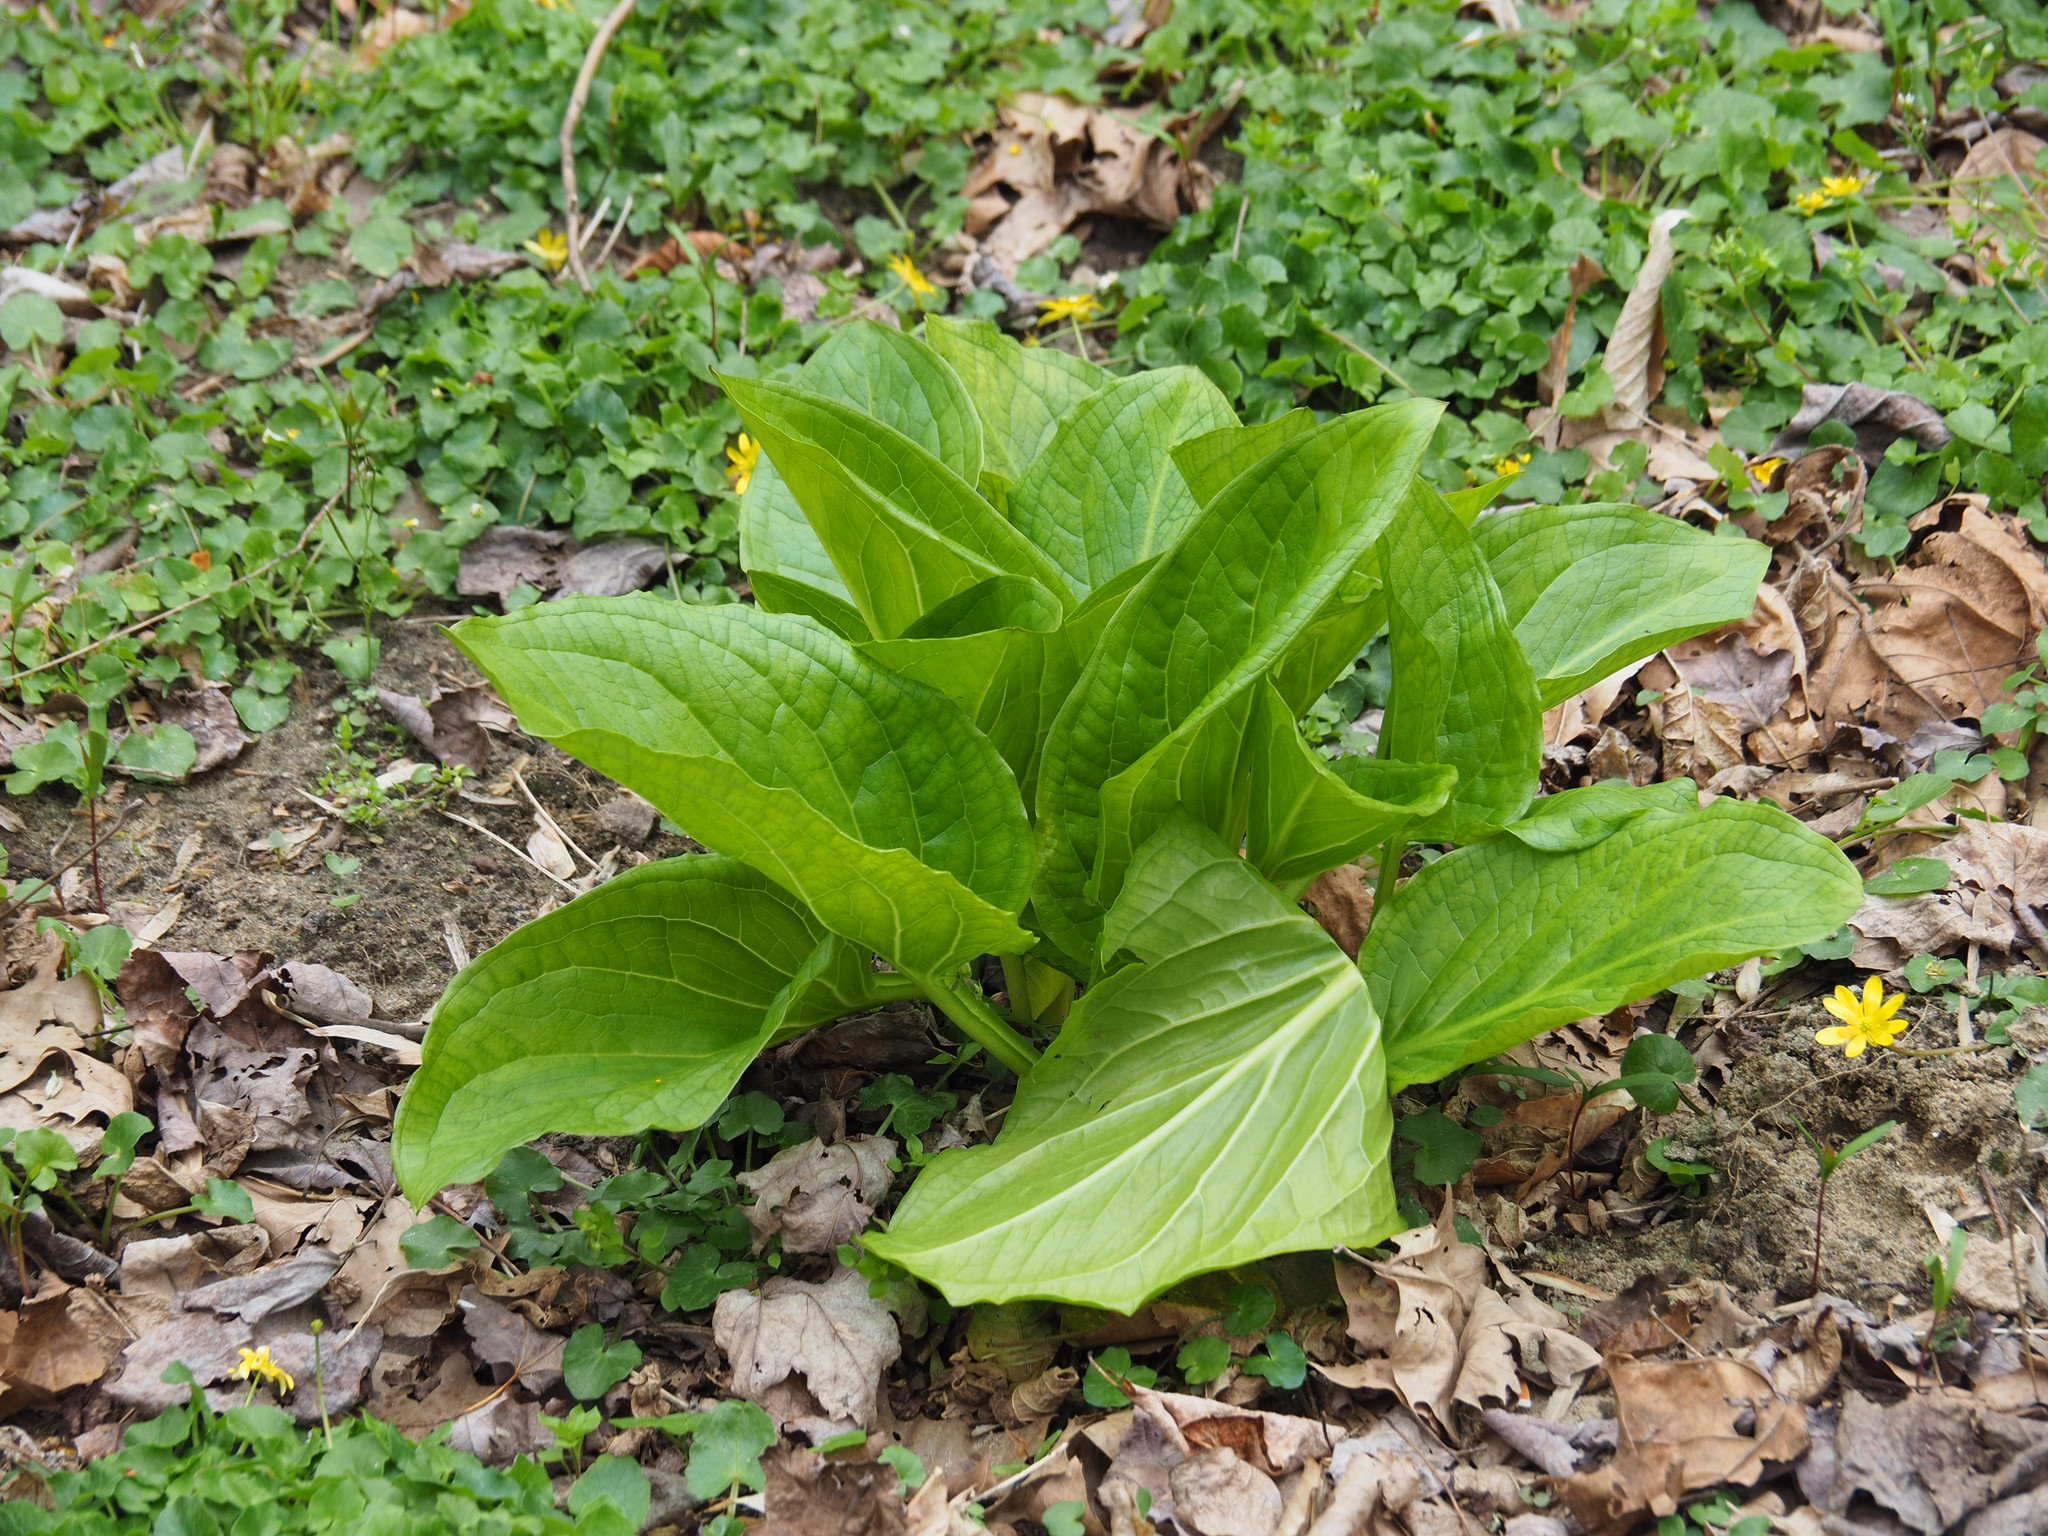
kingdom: Plantae
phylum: Tracheophyta
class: Liliopsida
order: Alismatales
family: Araceae
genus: Symplocarpus
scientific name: Symplocarpus foetidus
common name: Eastern skunk cabbage
